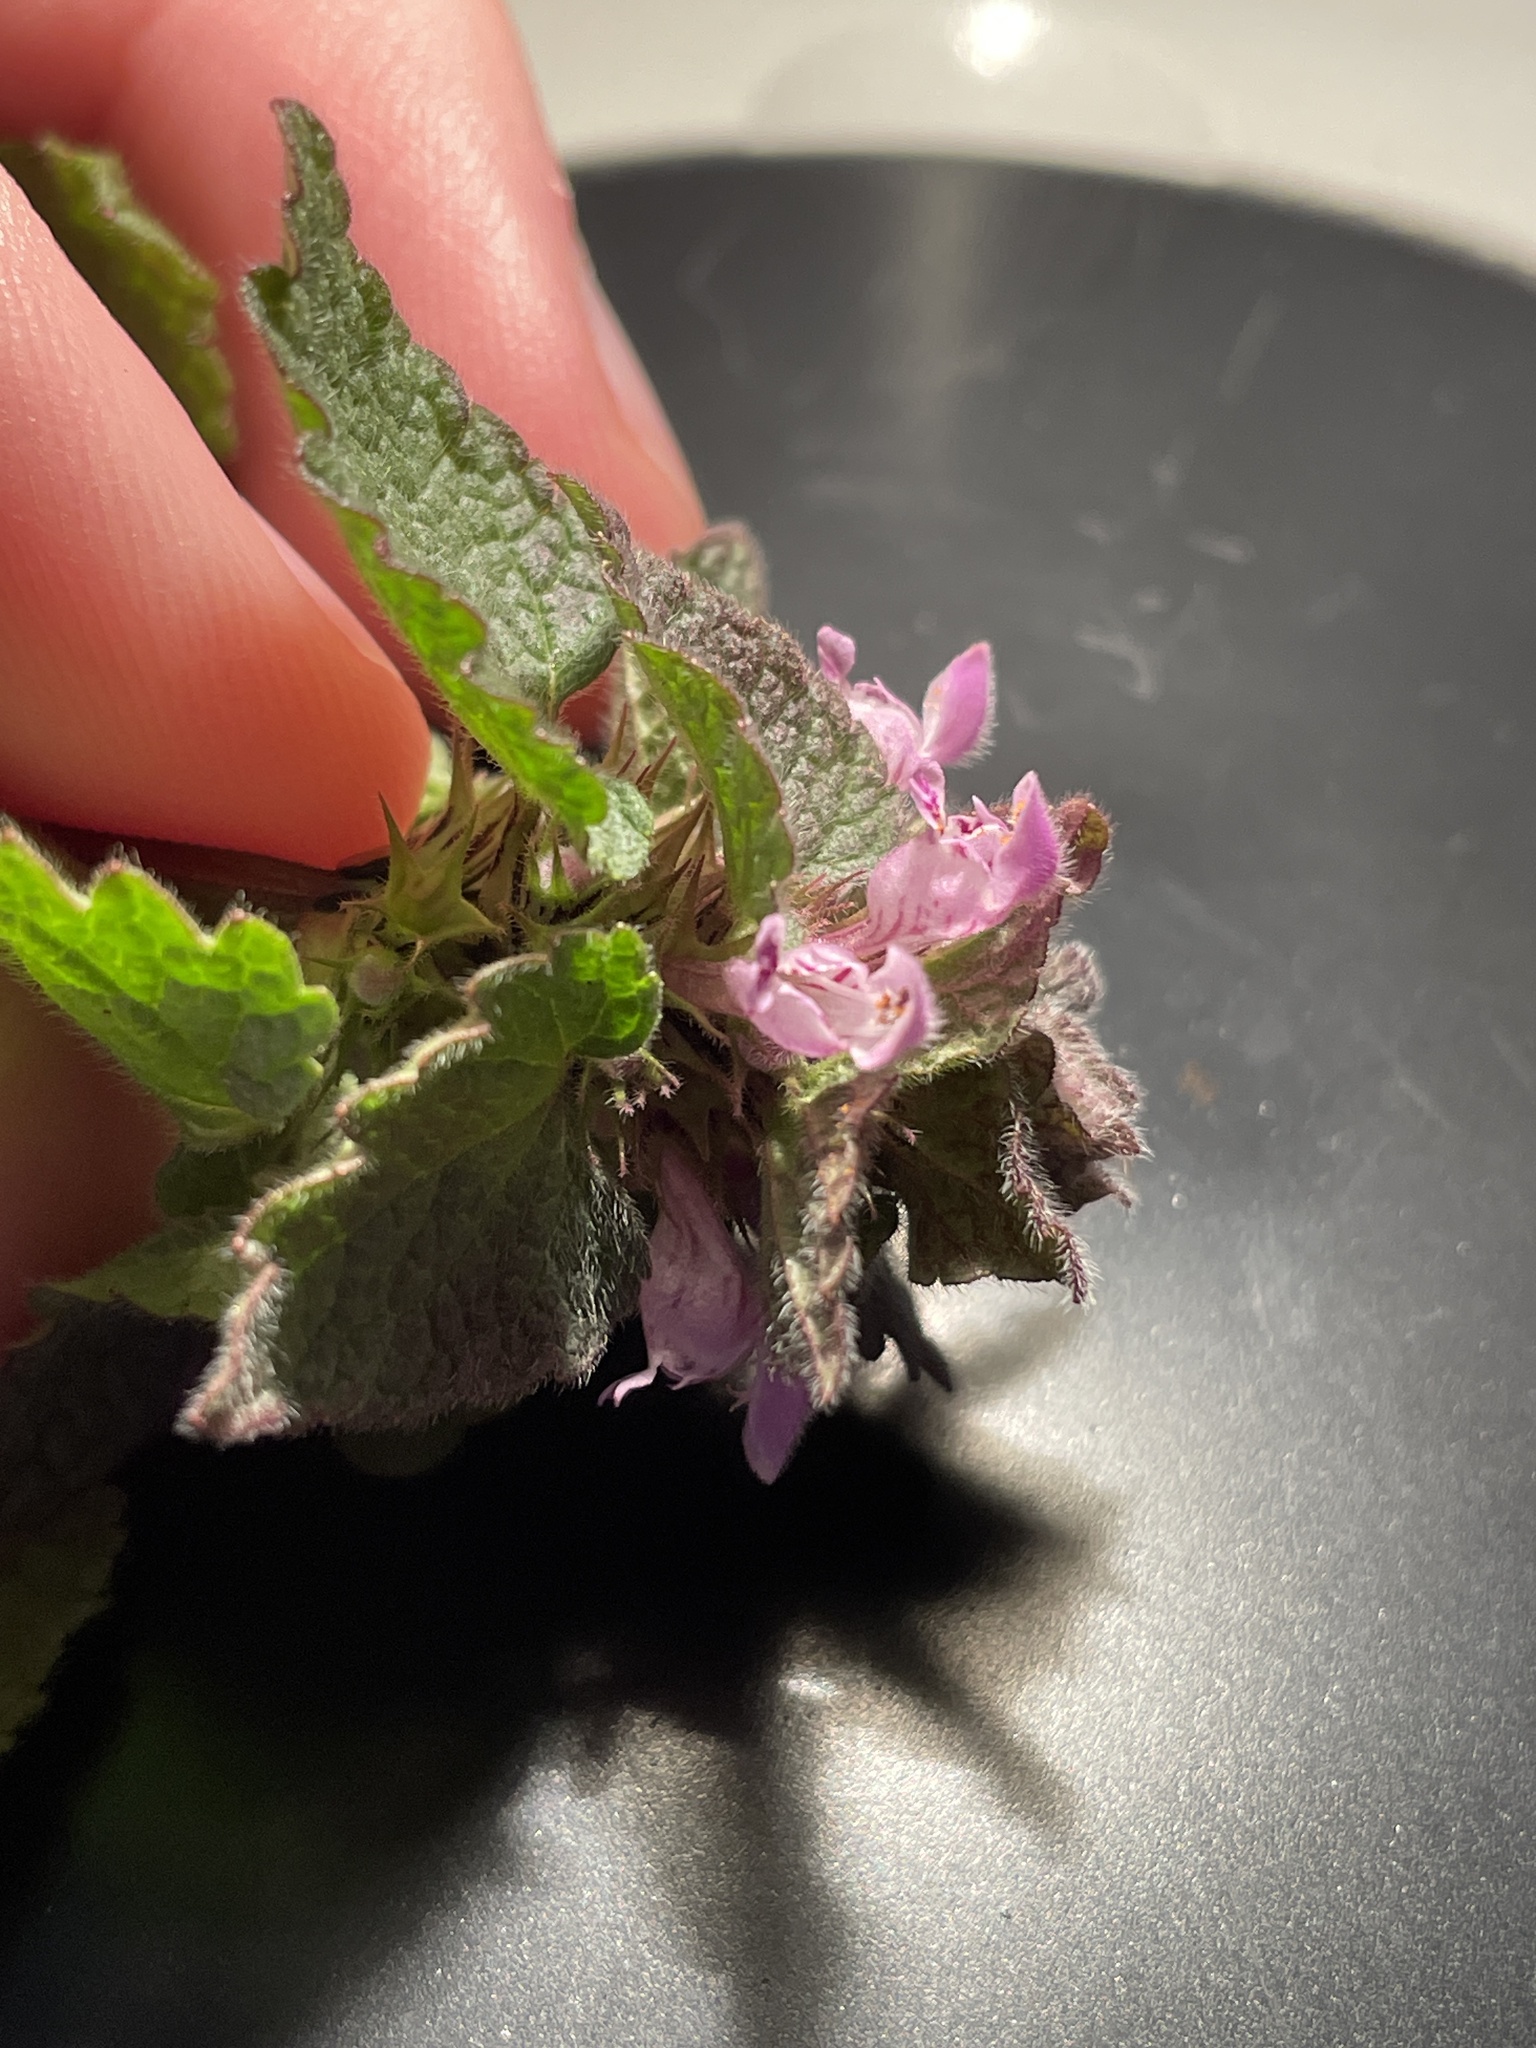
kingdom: Plantae
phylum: Tracheophyta
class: Magnoliopsida
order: Lamiales
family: Lamiaceae
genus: Lamium
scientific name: Lamium purpureum
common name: Red dead-nettle
